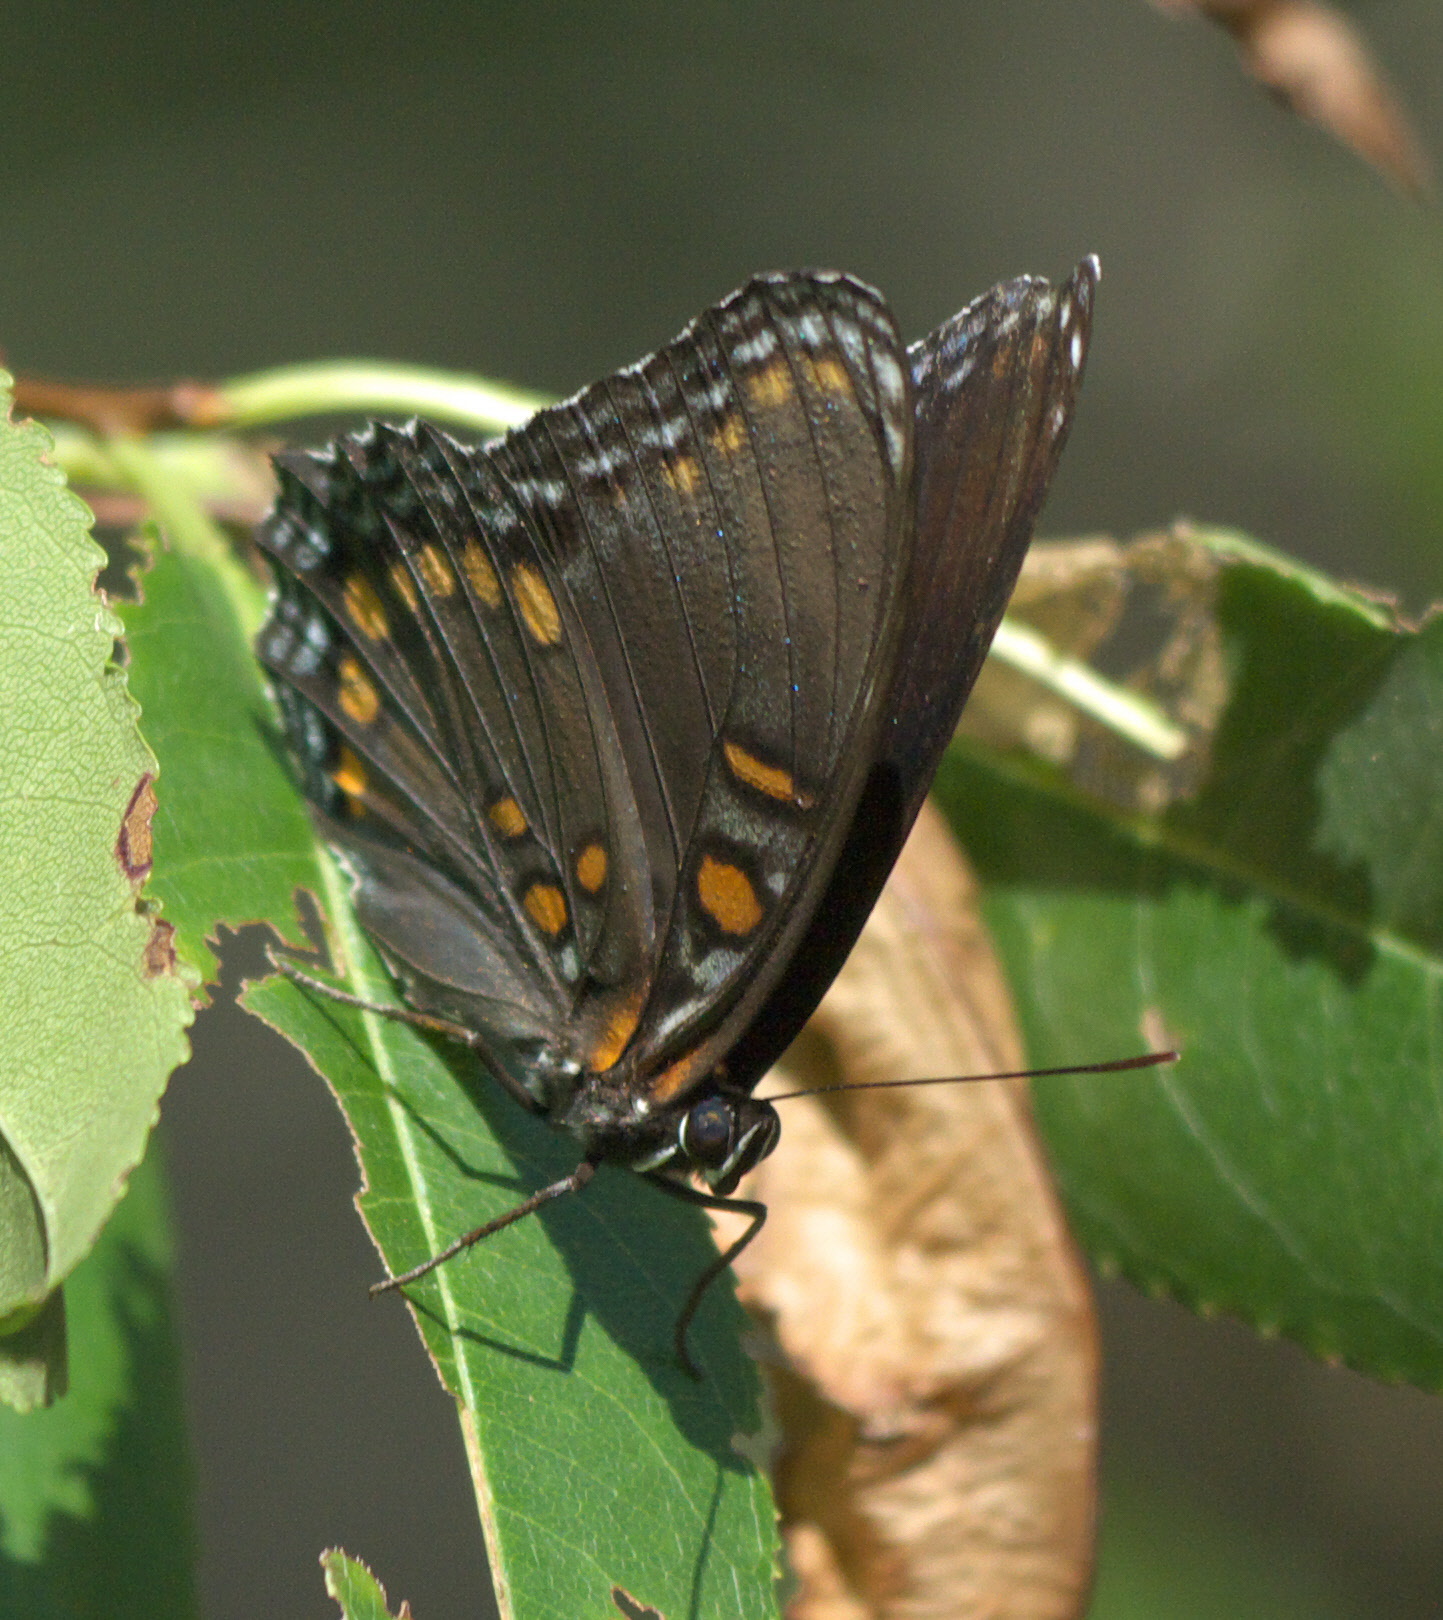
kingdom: Animalia
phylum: Arthropoda
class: Insecta
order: Lepidoptera
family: Nymphalidae
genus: Limenitis
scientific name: Limenitis astyanax
